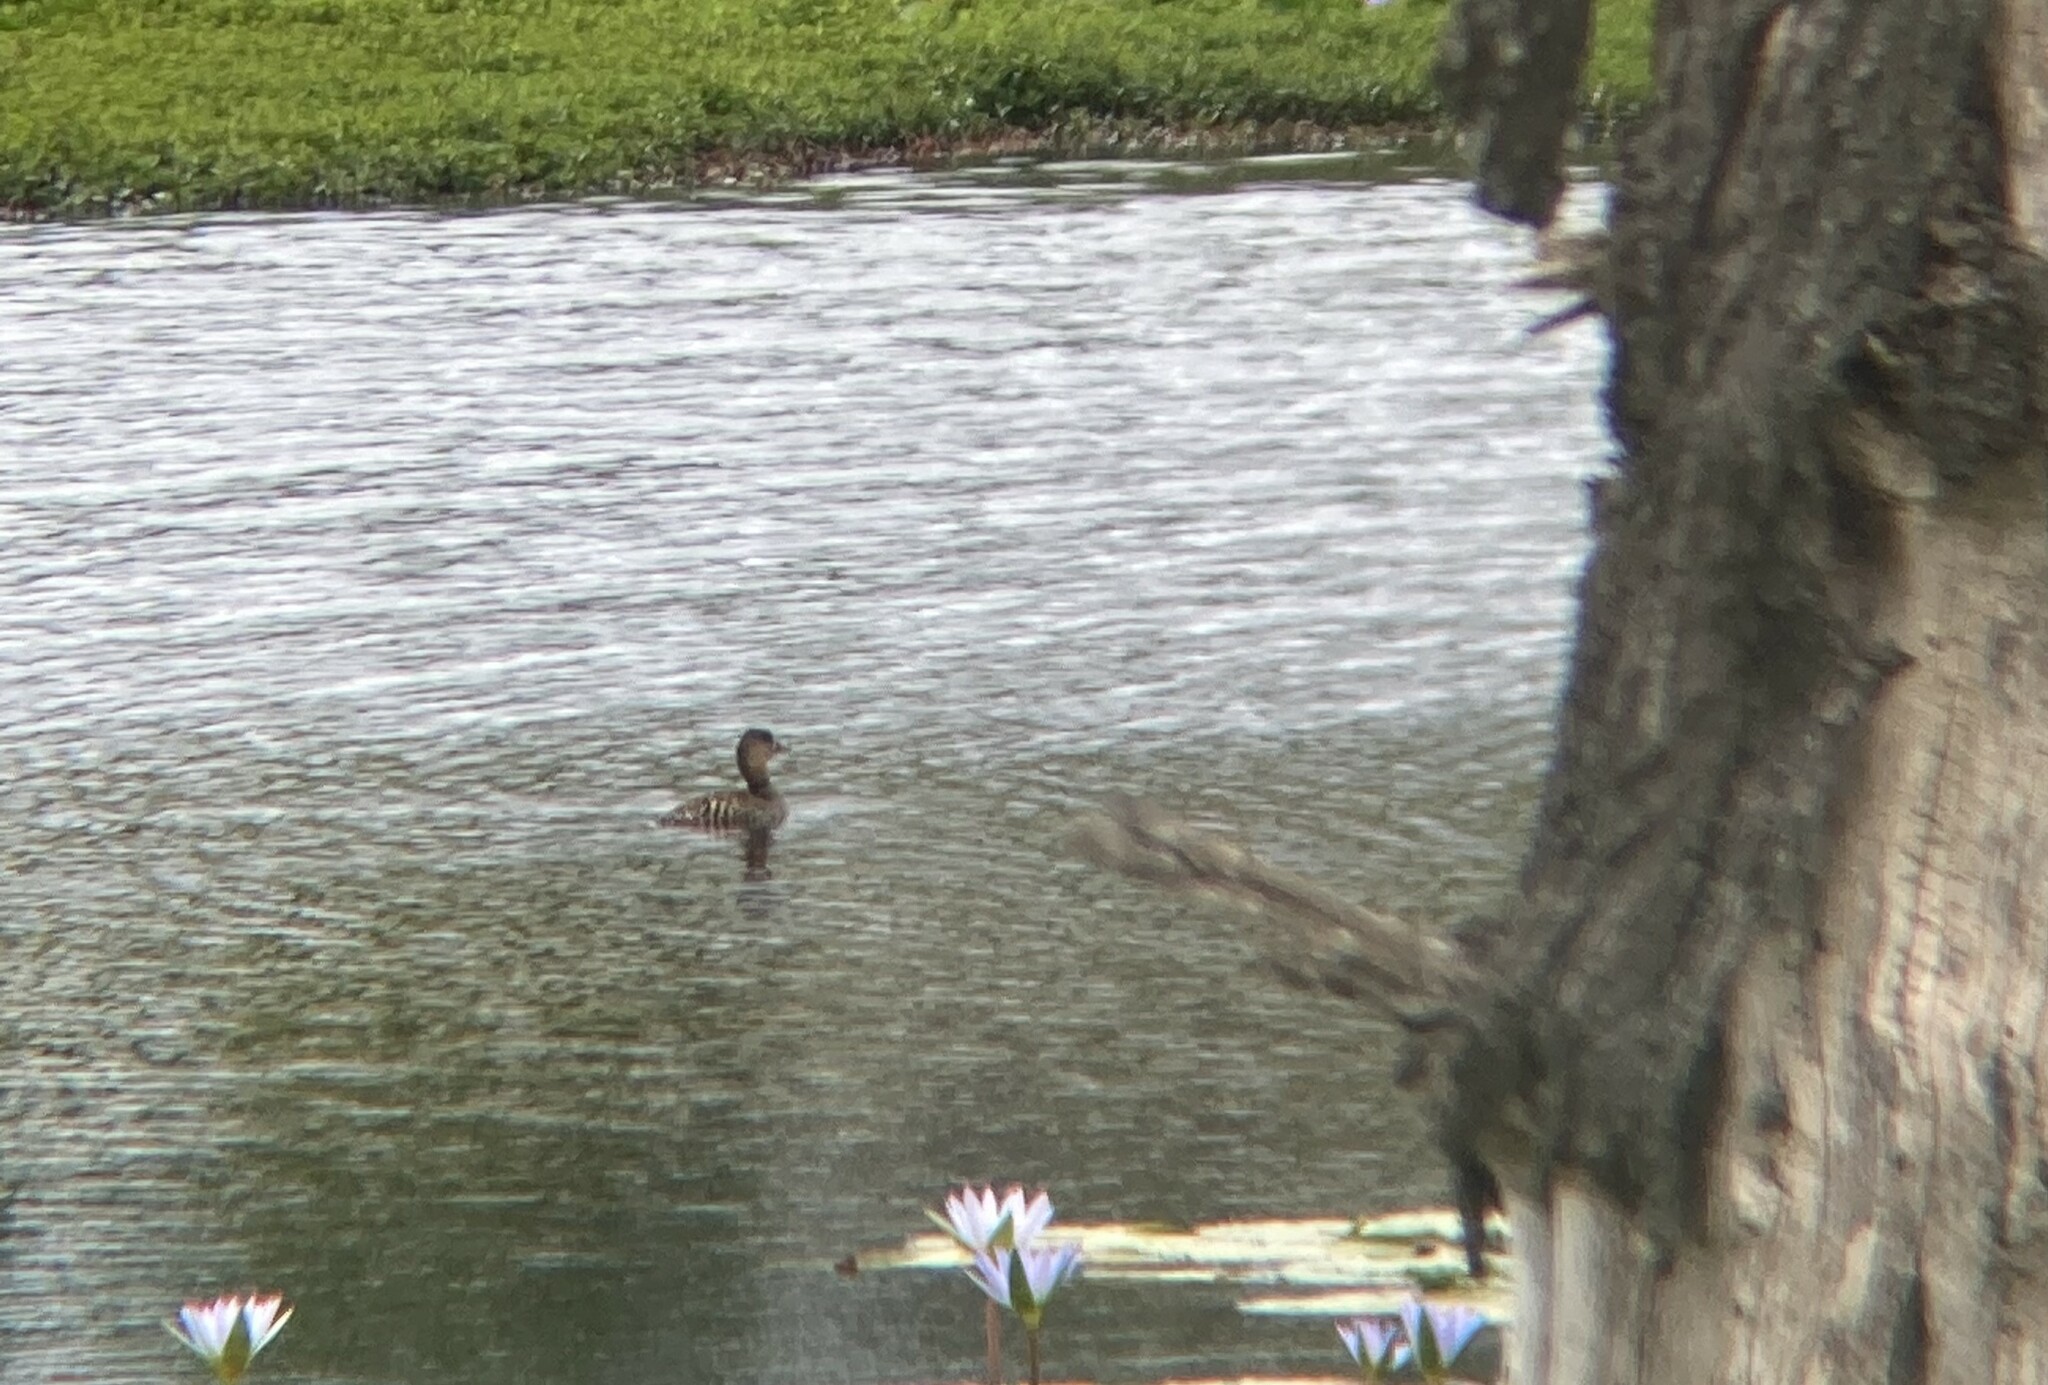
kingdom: Animalia
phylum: Chordata
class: Aves
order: Anseriformes
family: Anatidae
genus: Thalassornis
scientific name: Thalassornis leuconotus
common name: White-backed duck
